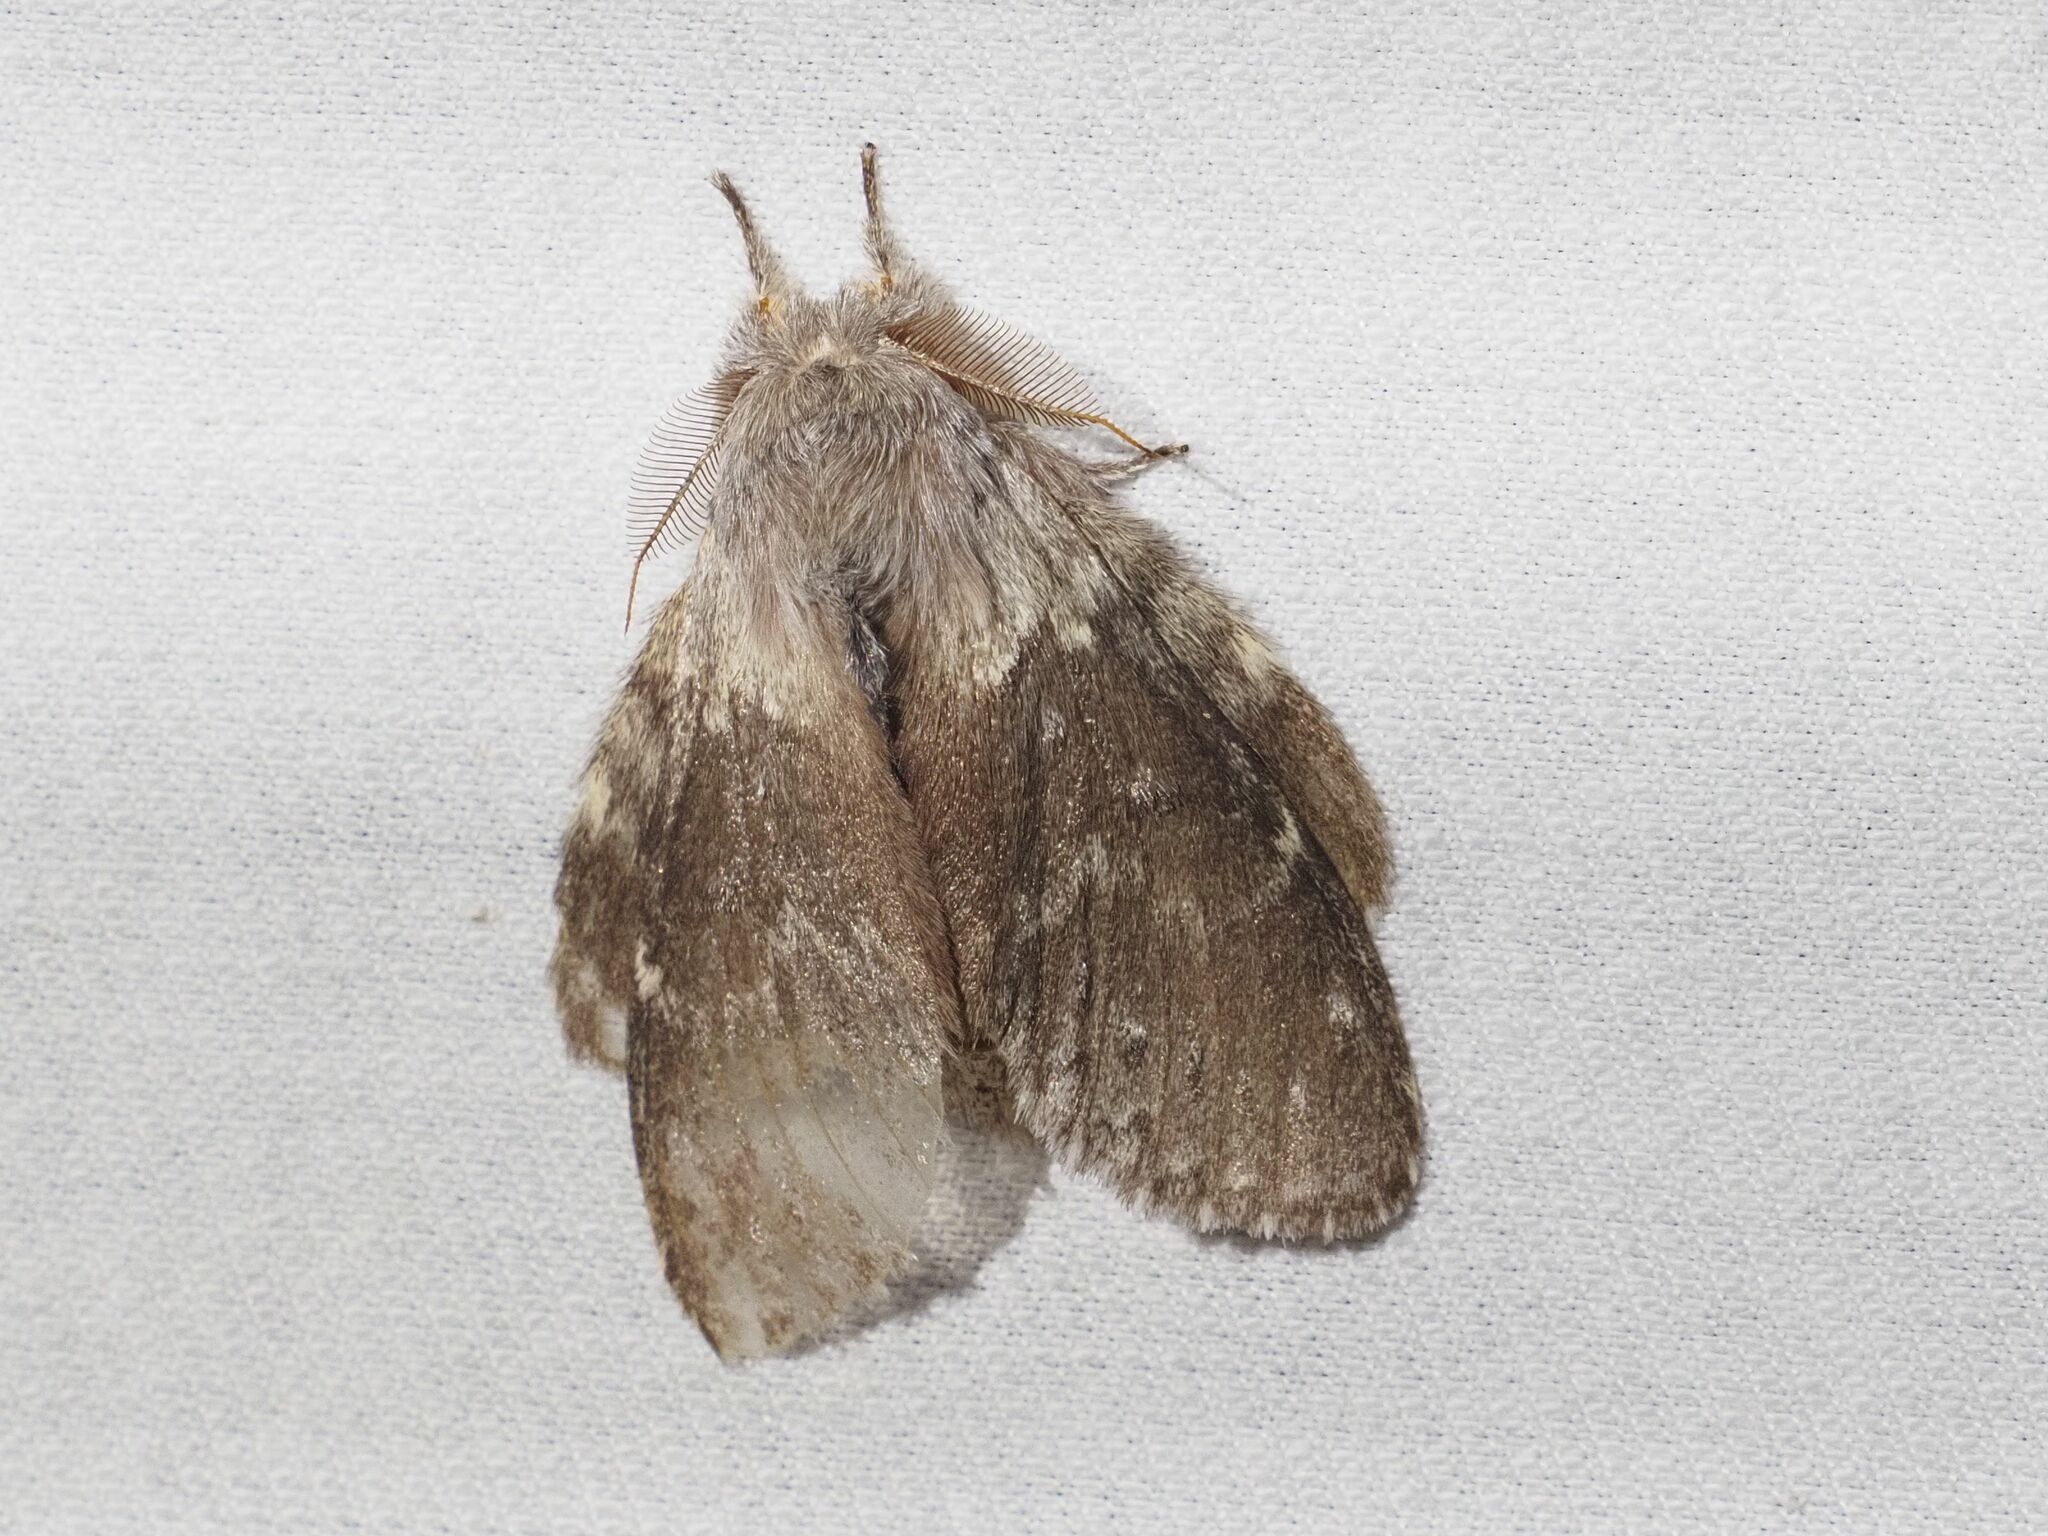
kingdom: Animalia
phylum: Arthropoda
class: Insecta
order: Lepidoptera
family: Notodontidae
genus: Stauropus
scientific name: Stauropus fagi
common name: Lobster moth
